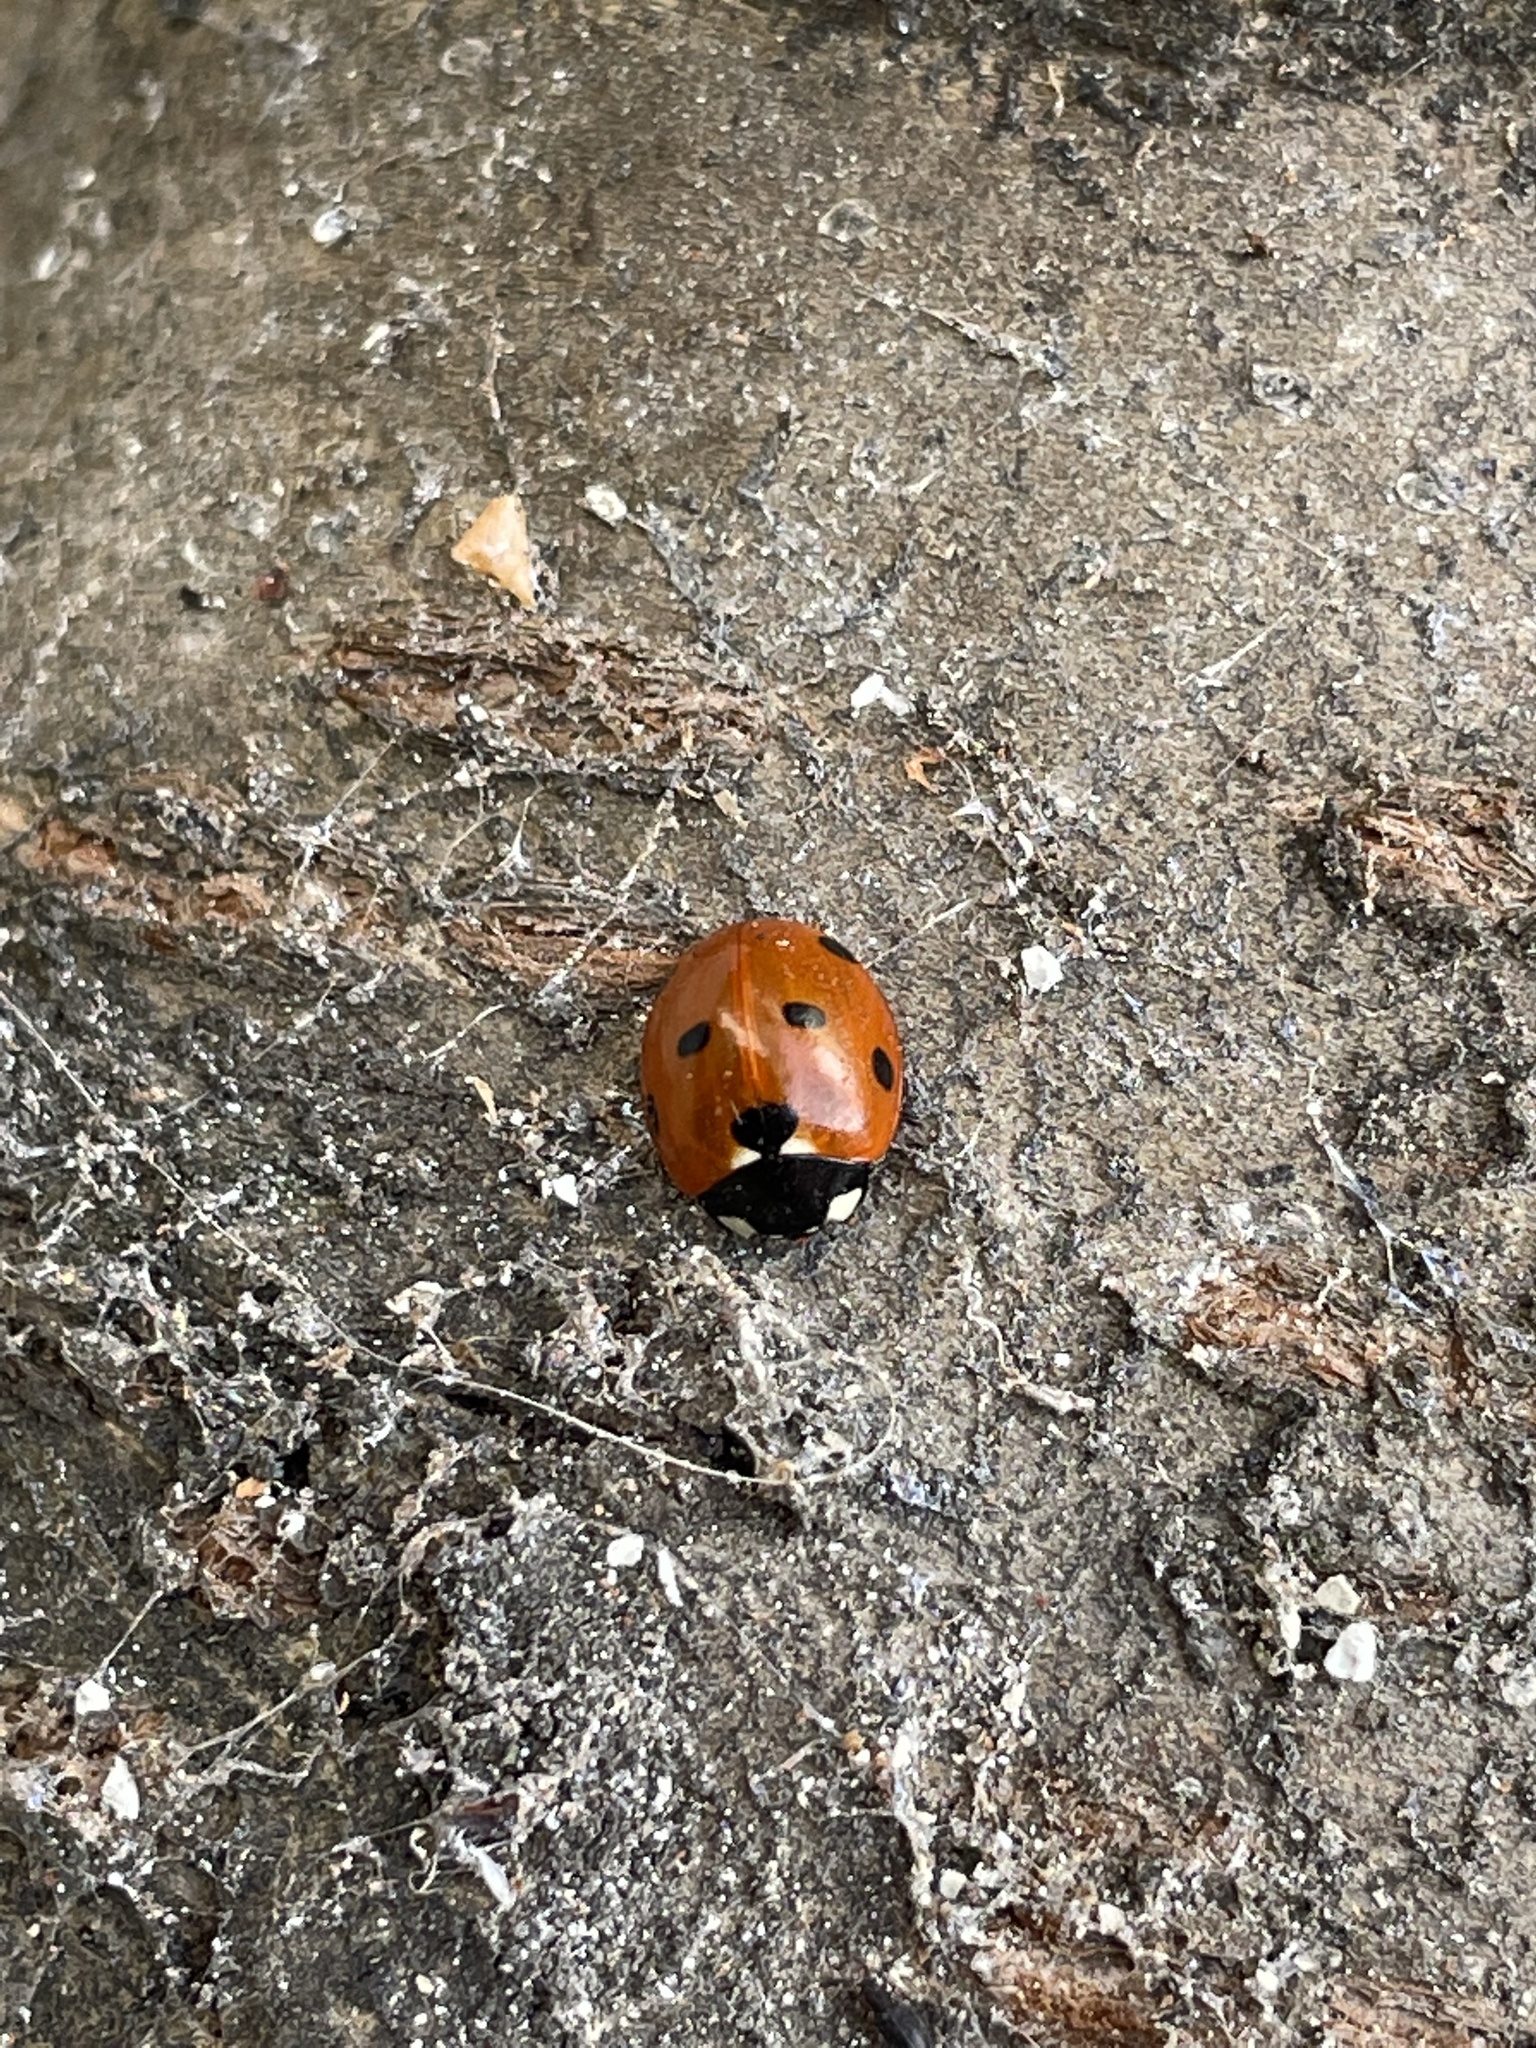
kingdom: Animalia
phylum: Arthropoda
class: Insecta
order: Coleoptera
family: Coccinellidae
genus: Coccinella
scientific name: Coccinella septempunctata
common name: Sevenspotted lady beetle
